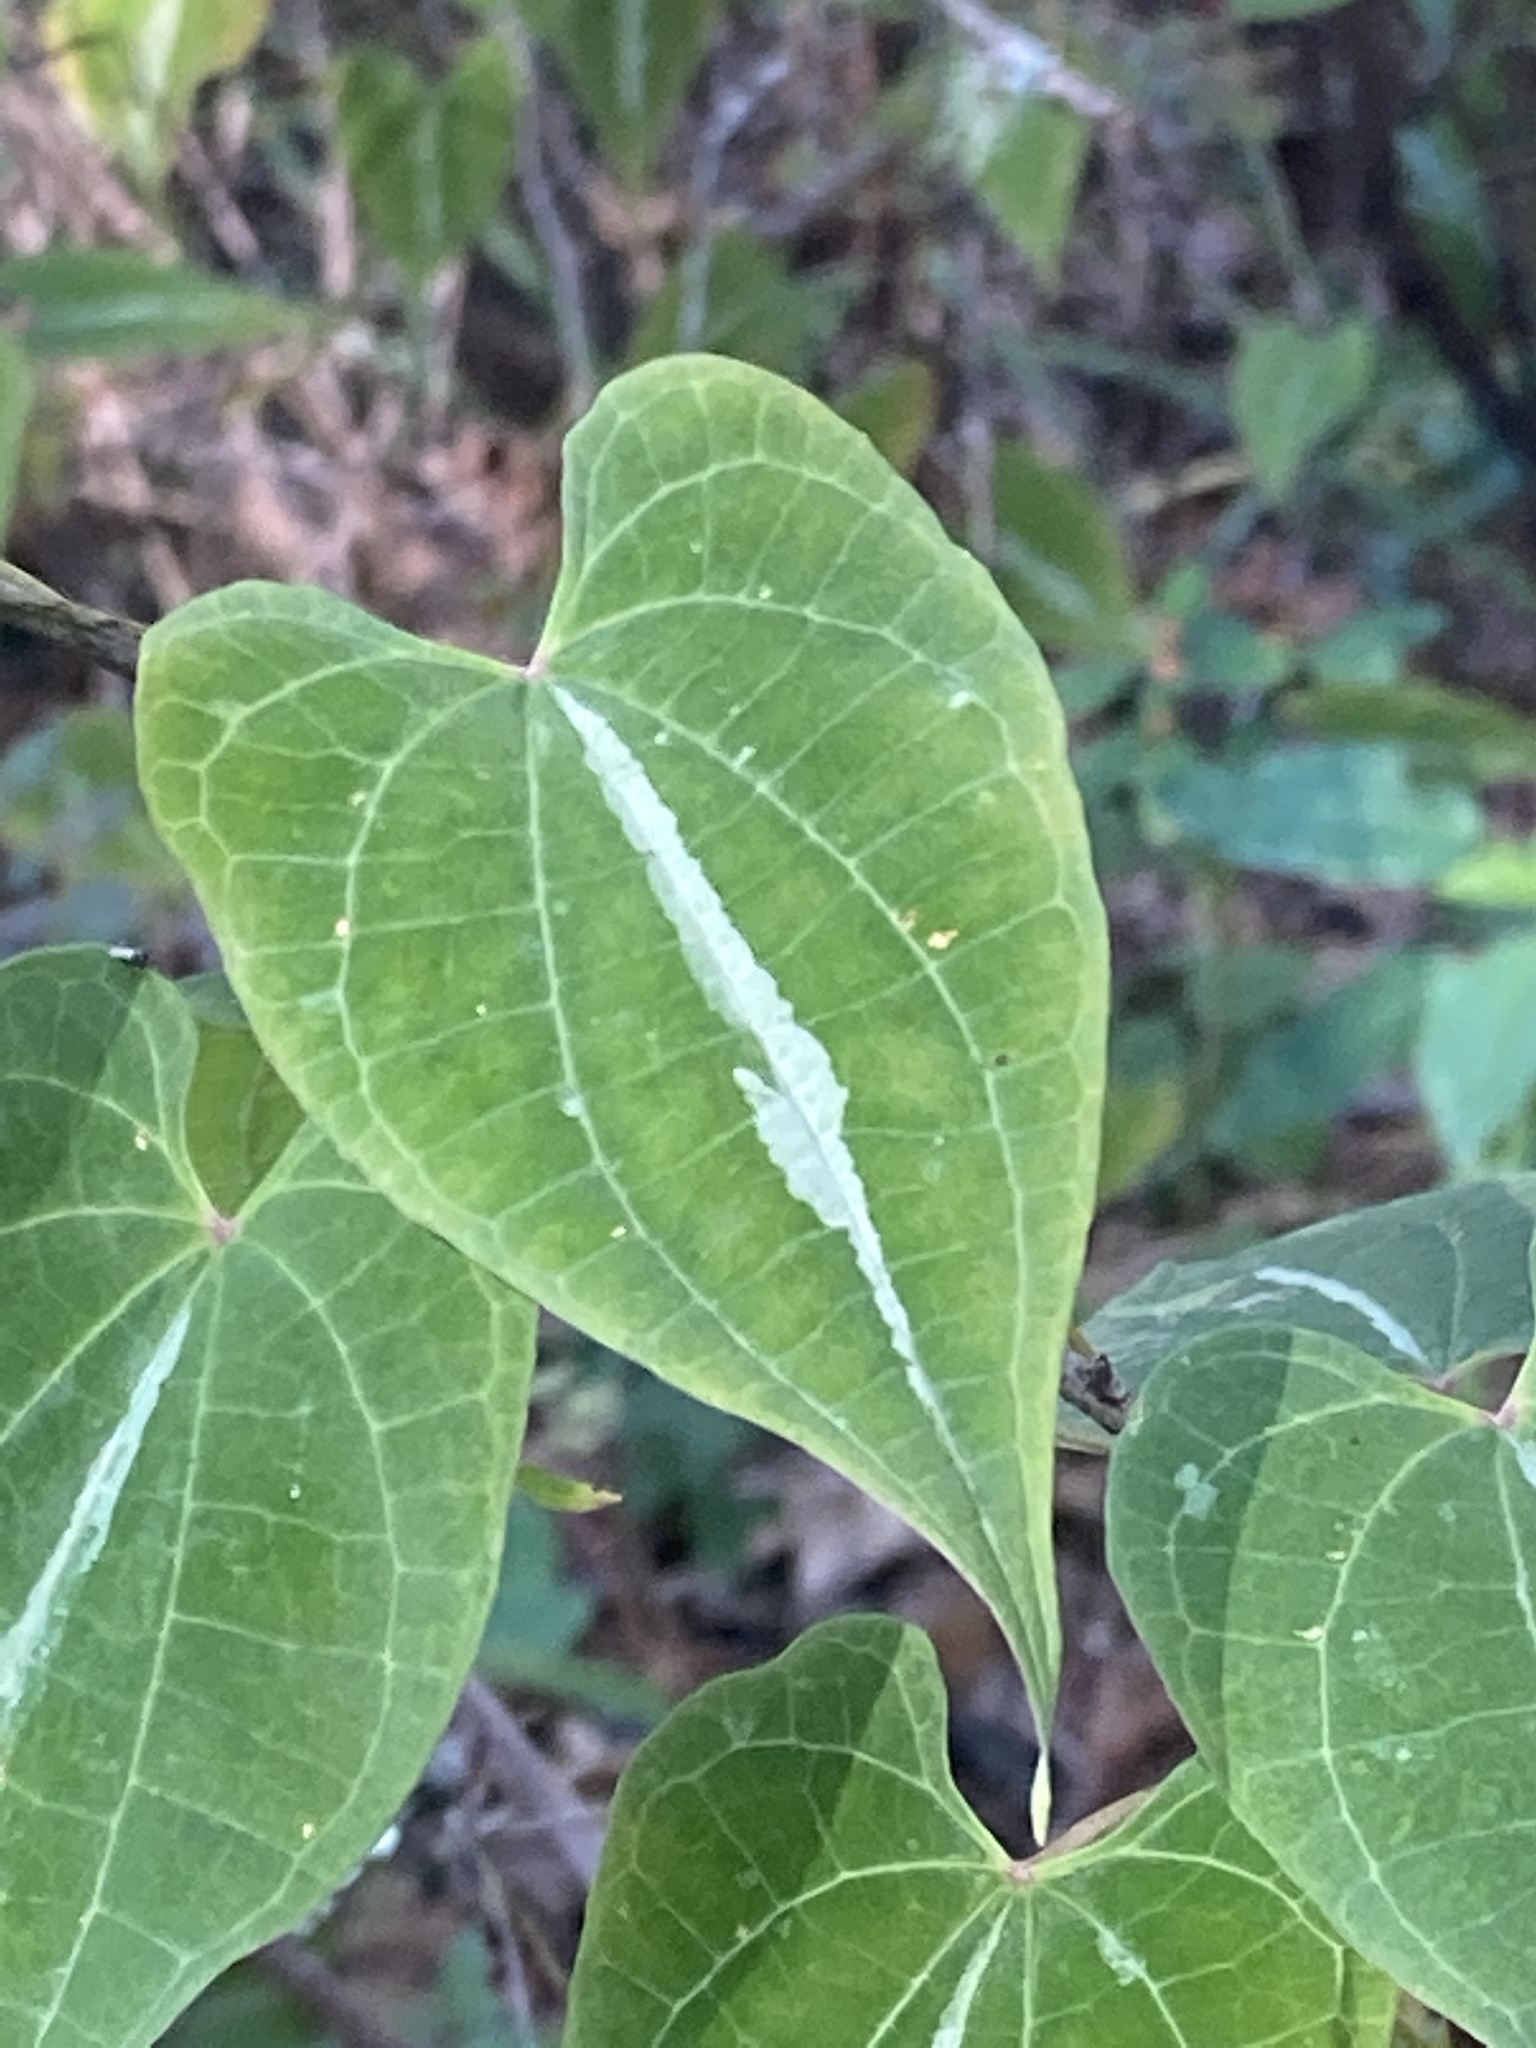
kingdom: Plantae
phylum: Tracheophyta
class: Liliopsida
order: Dioscoreales
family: Dioscoreaceae
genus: Dioscorea
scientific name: Dioscorea dodecaneura
